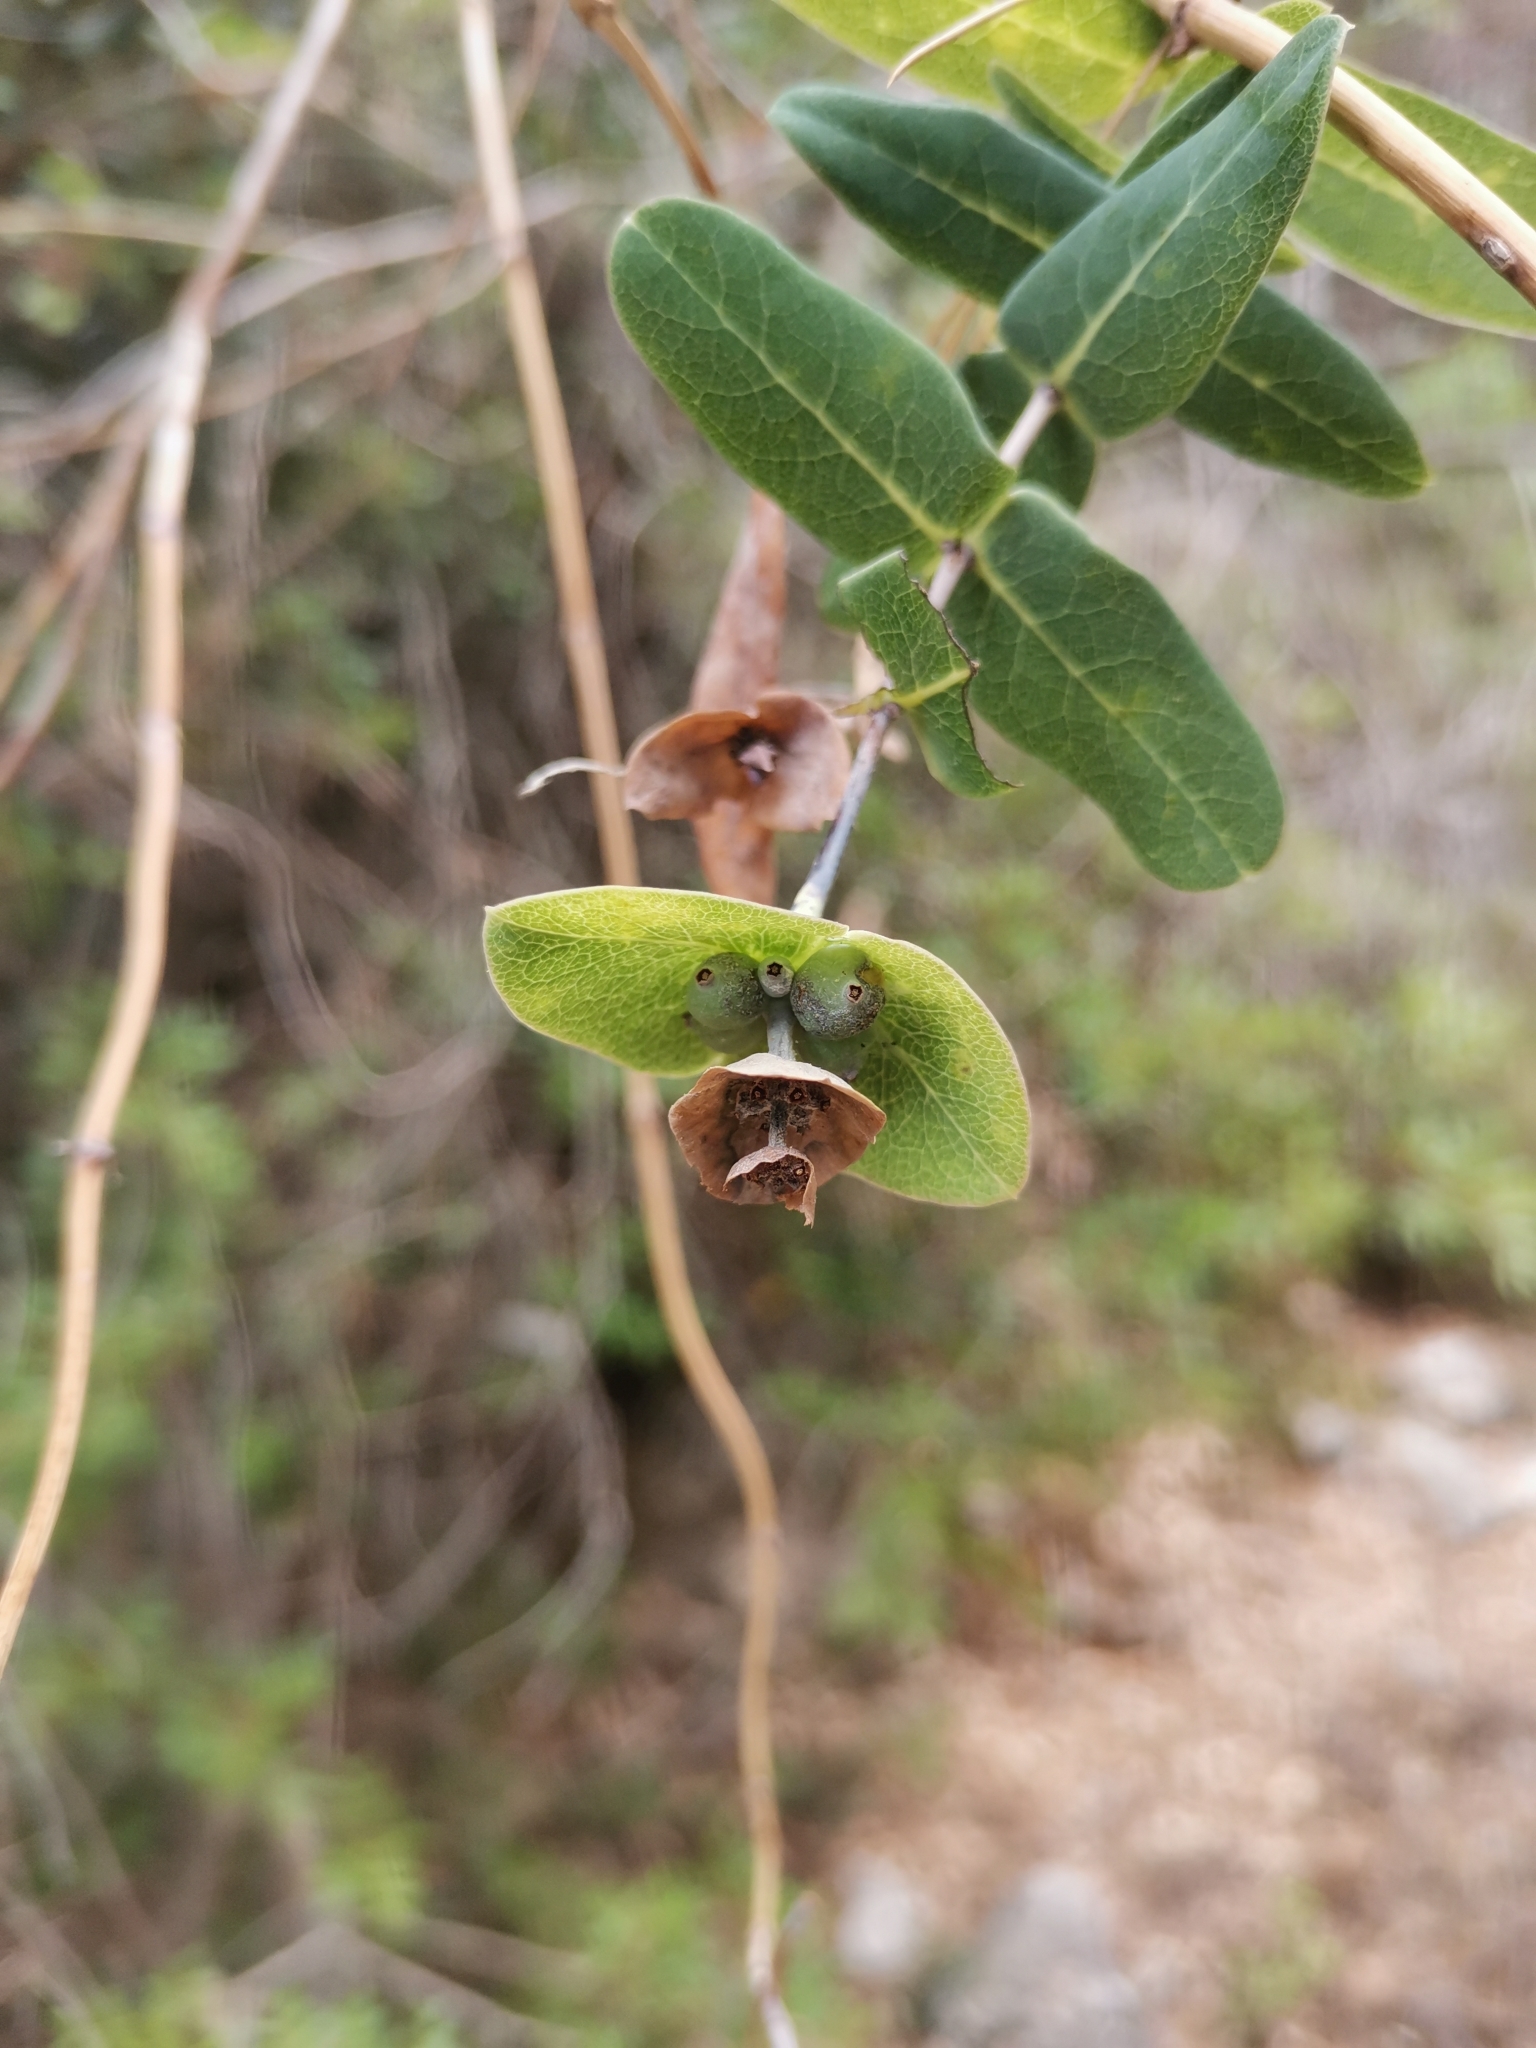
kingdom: Plantae
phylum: Tracheophyta
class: Magnoliopsida
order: Dipsacales
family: Caprifoliaceae
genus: Lonicera
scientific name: Lonicera implexa
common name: Minorca honeysuckle
